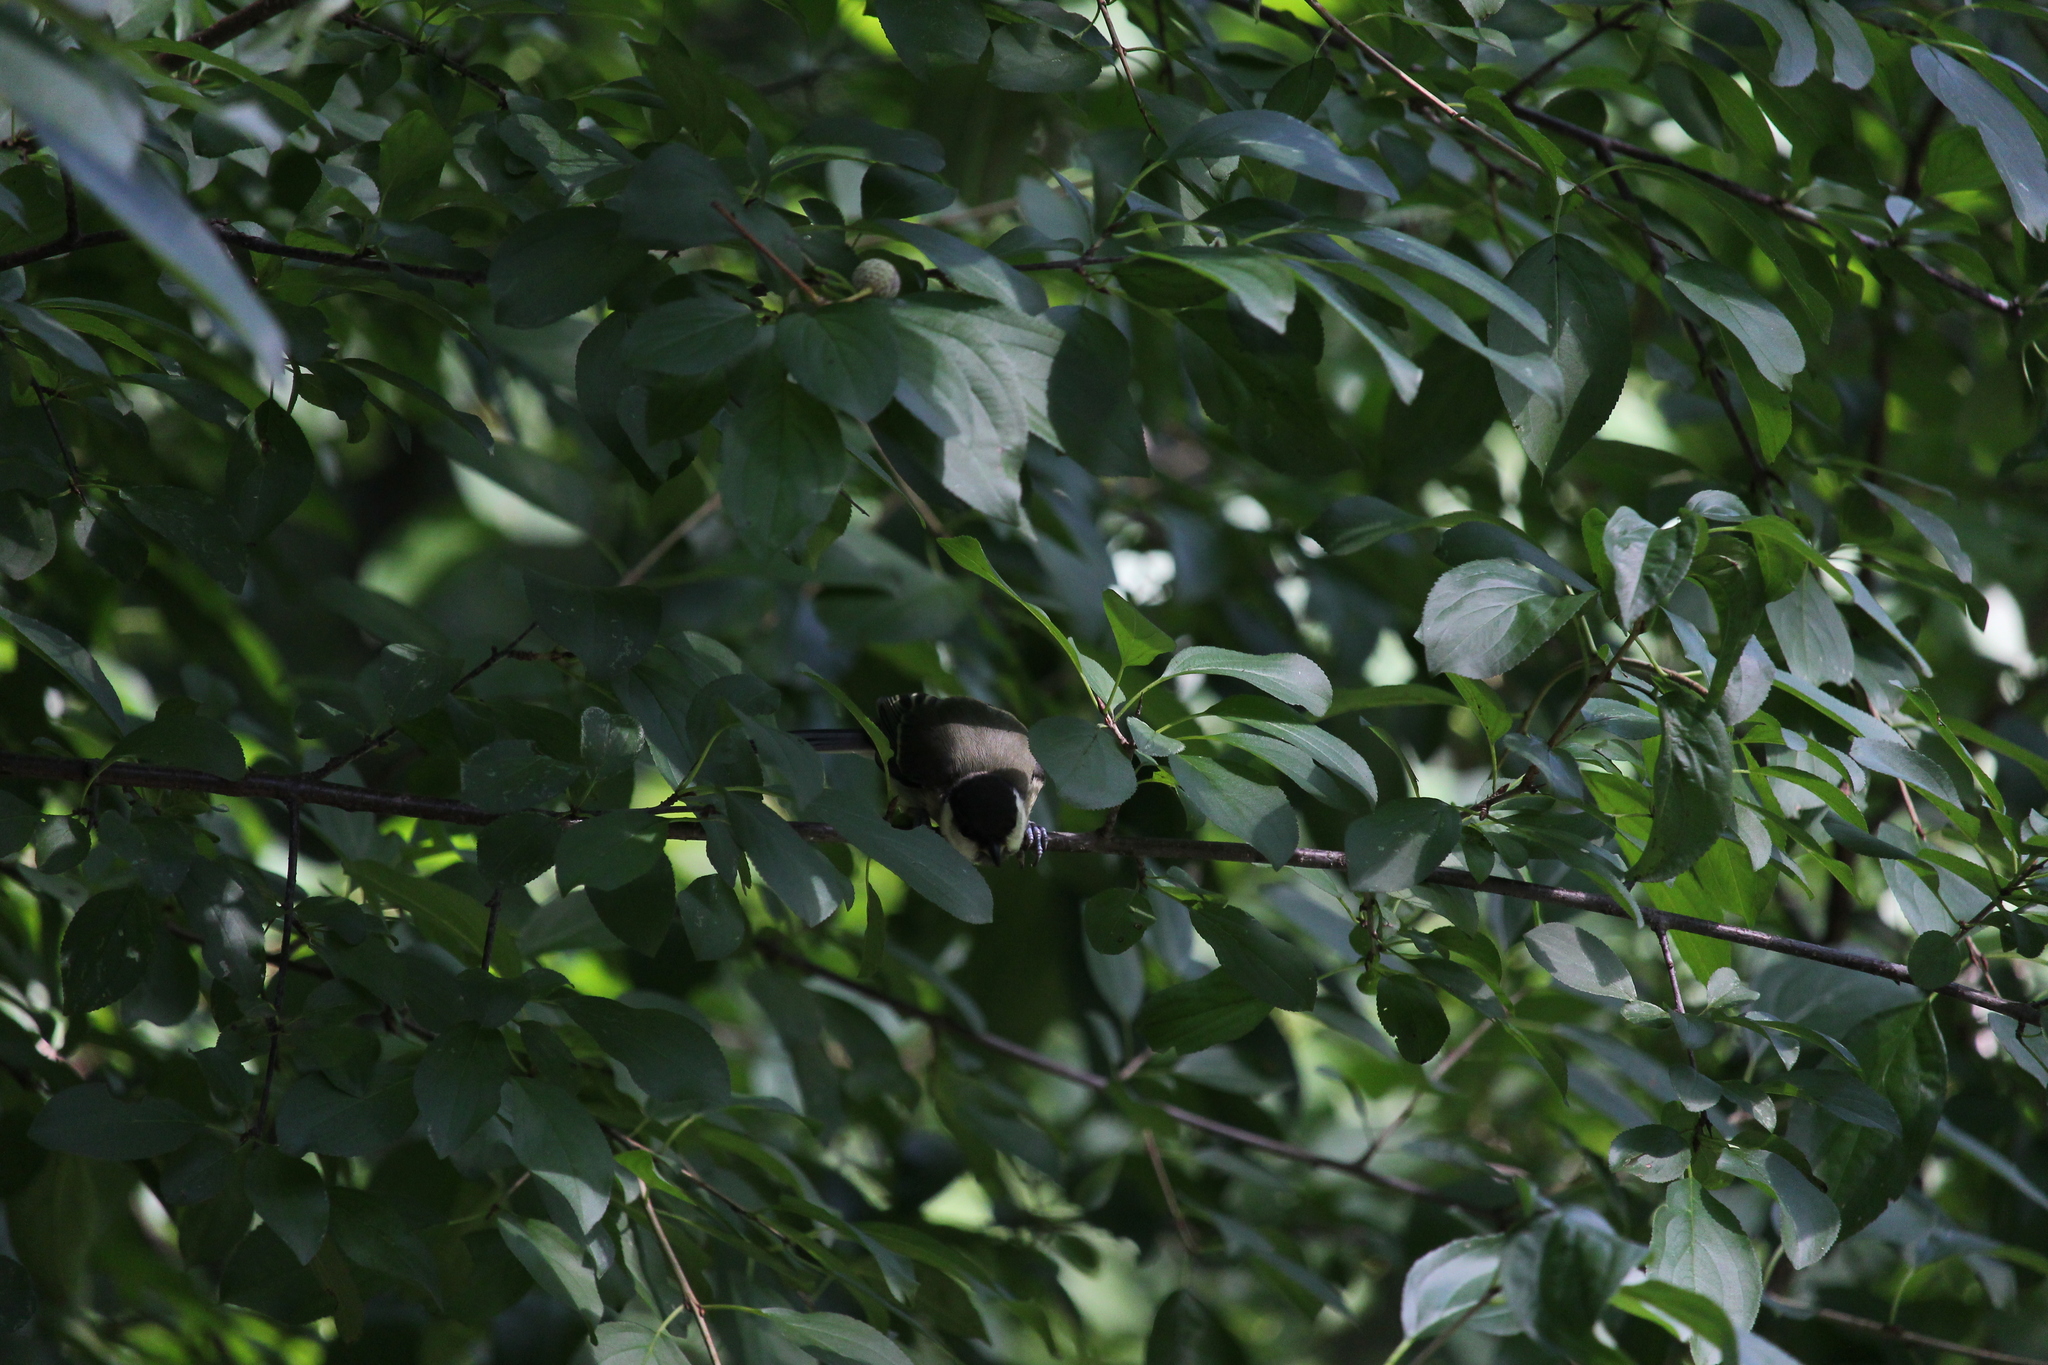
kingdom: Animalia
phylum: Chordata
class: Aves
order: Passeriformes
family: Paridae
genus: Parus
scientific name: Parus major
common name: Great tit
